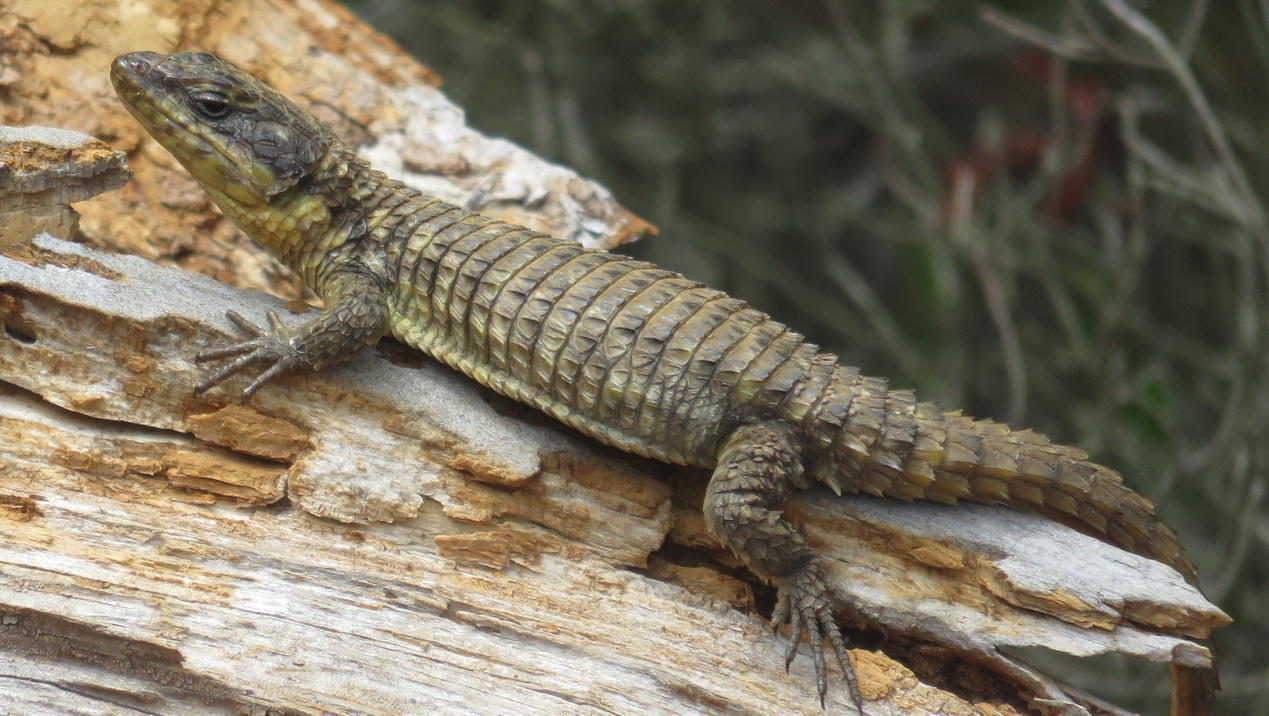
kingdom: Animalia
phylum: Chordata
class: Squamata
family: Cordylidae
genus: Cordylus
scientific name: Cordylus cordylus
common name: Cape girdled lizard
